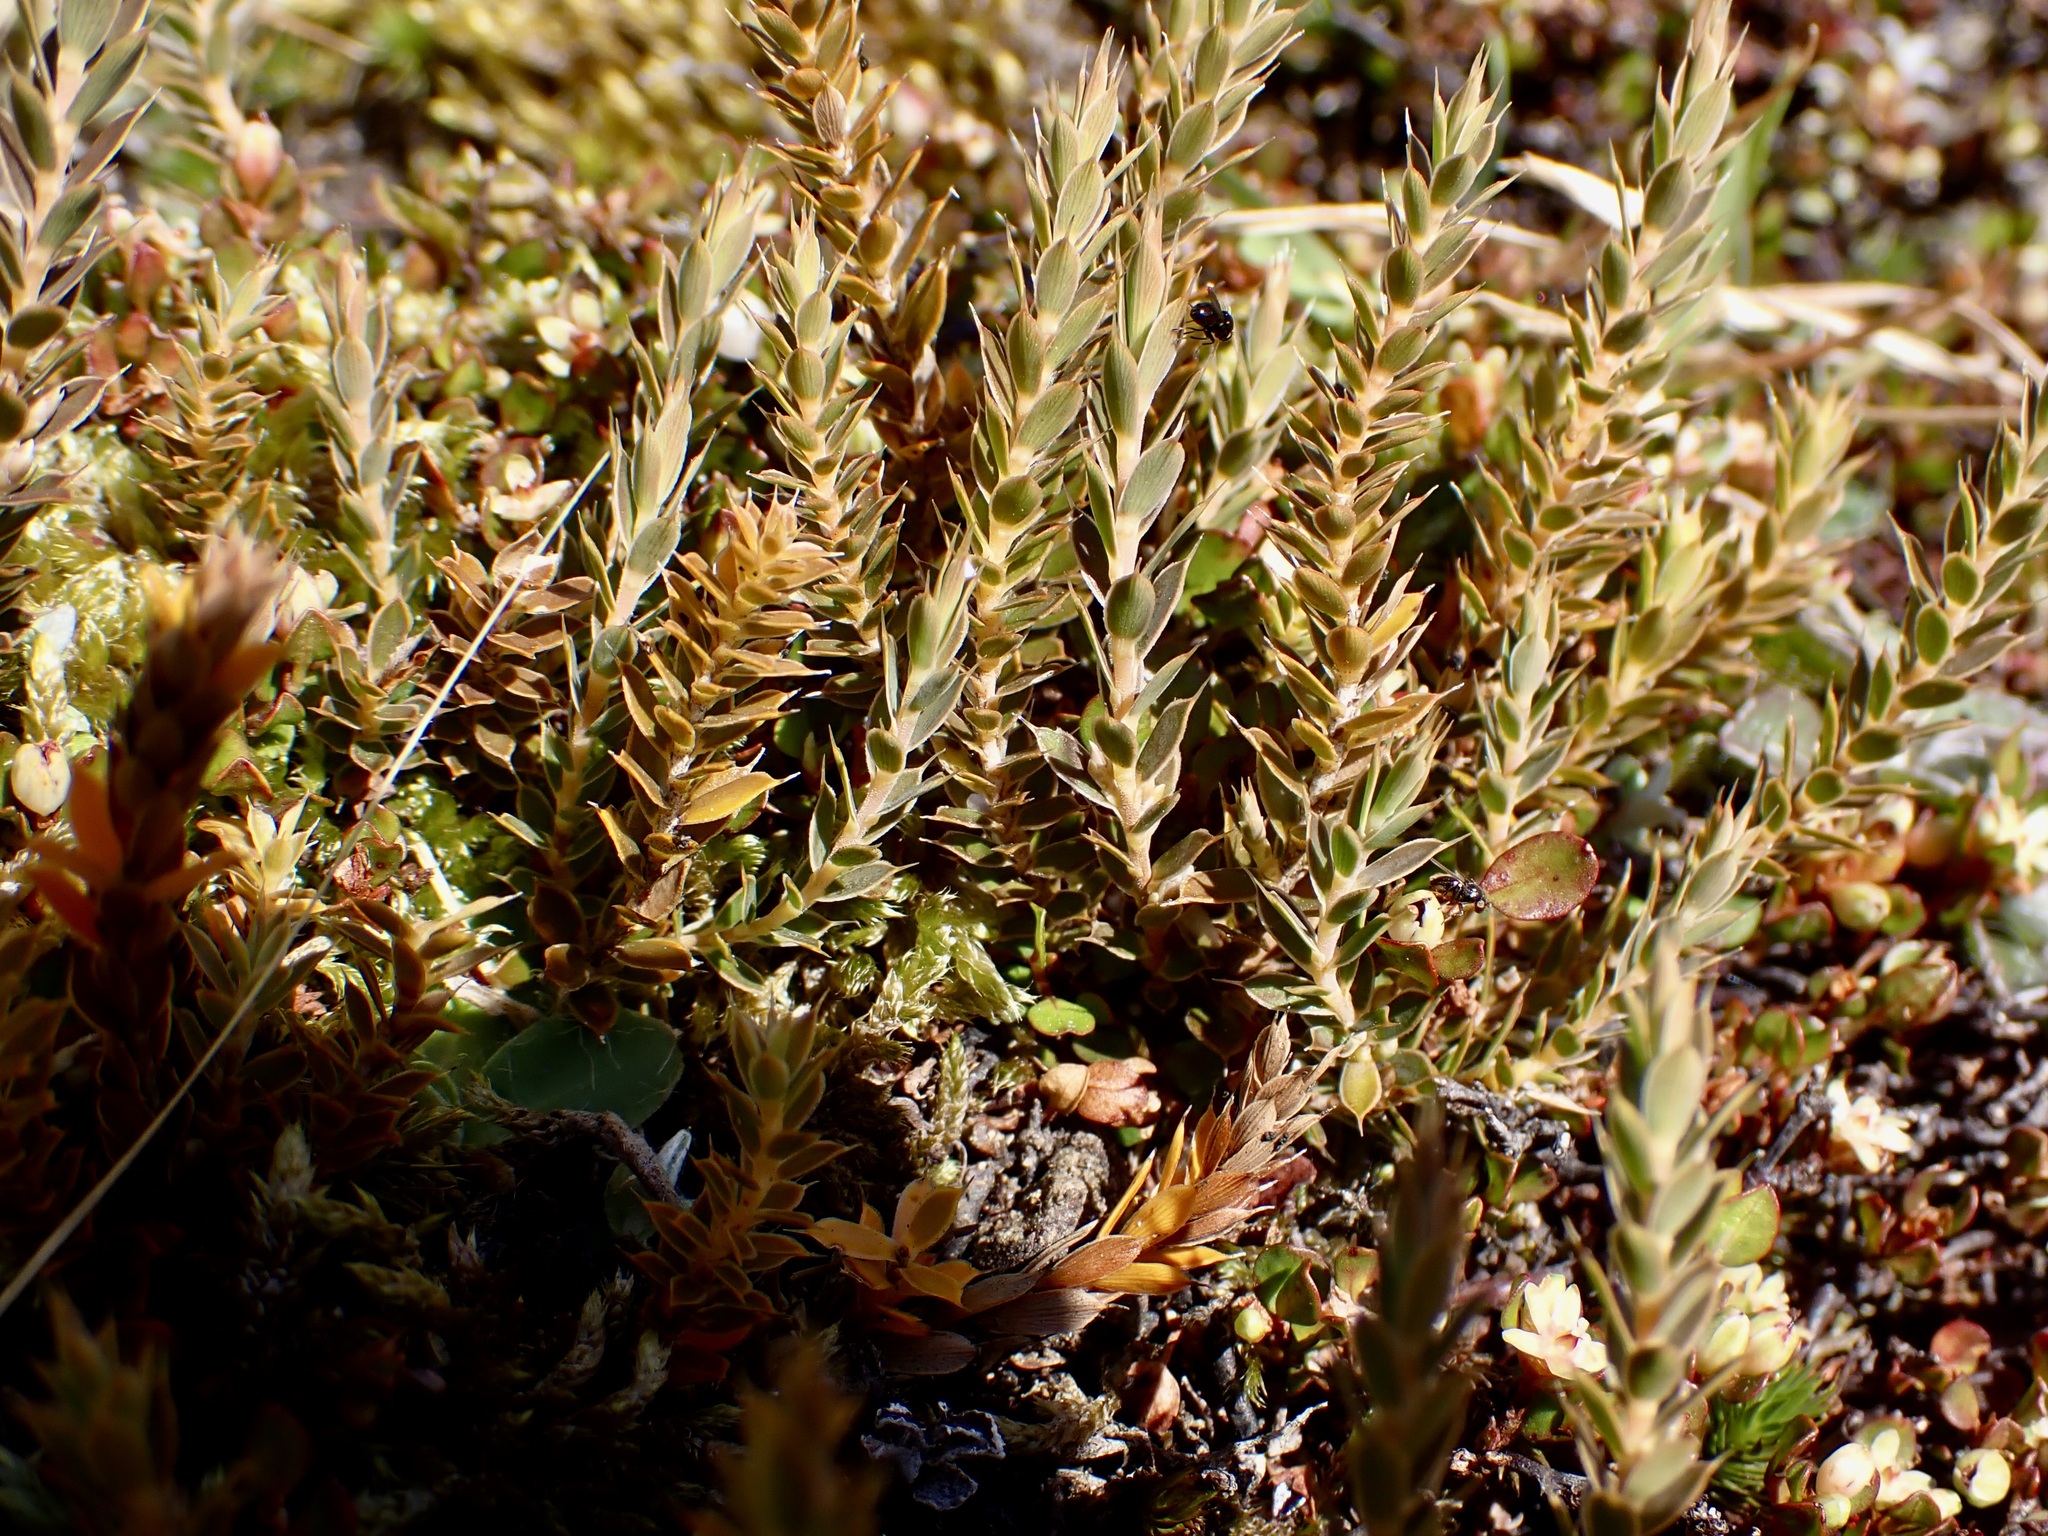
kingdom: Plantae
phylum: Tracheophyta
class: Magnoliopsida
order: Ericales
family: Ericaceae
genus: Styphelia
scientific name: Styphelia nesophila
